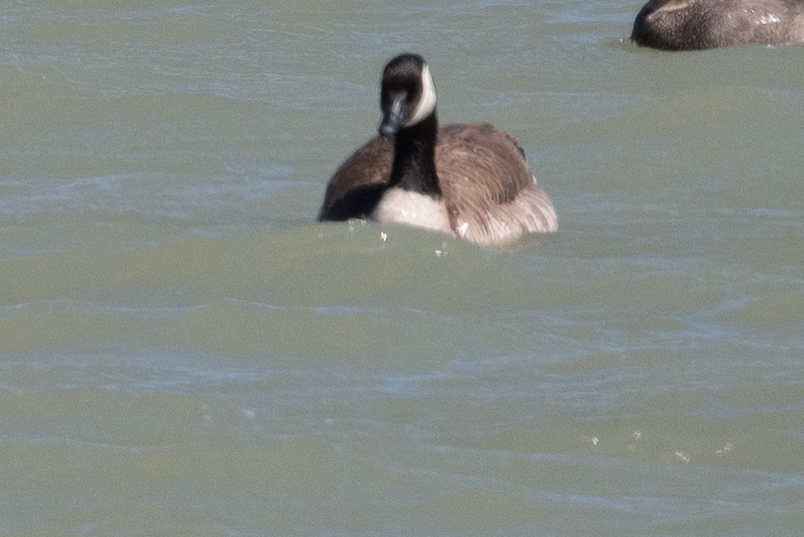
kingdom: Animalia
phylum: Chordata
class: Aves
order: Anseriformes
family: Anatidae
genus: Branta
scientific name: Branta canadensis
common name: Canada goose
